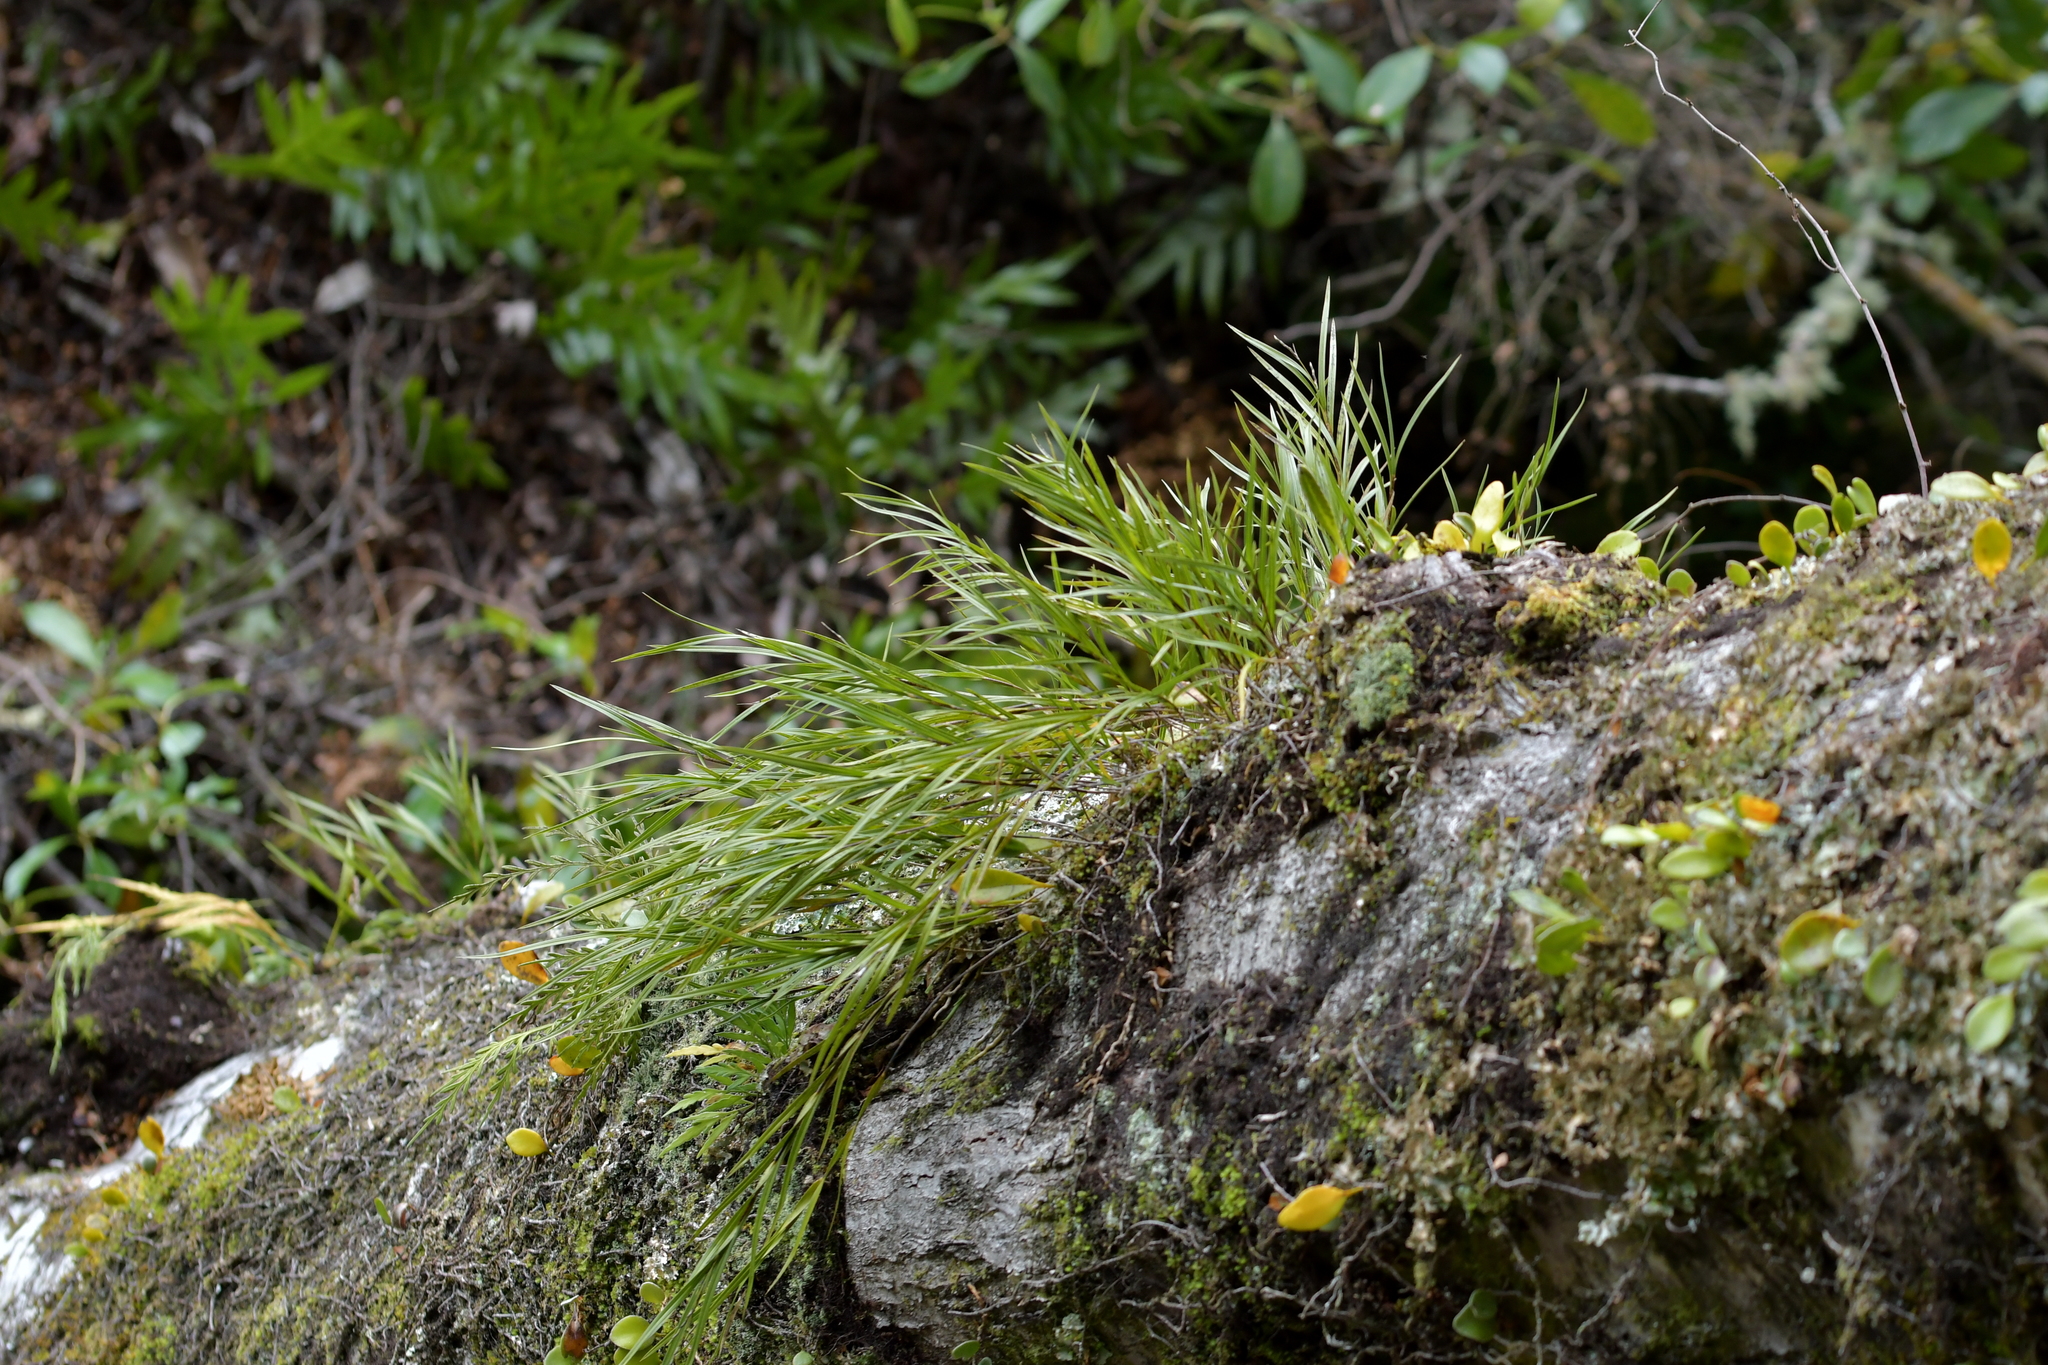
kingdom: Plantae
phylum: Tracheophyta
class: Liliopsida
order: Asparagales
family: Orchidaceae
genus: Earina
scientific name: Earina mucronata
